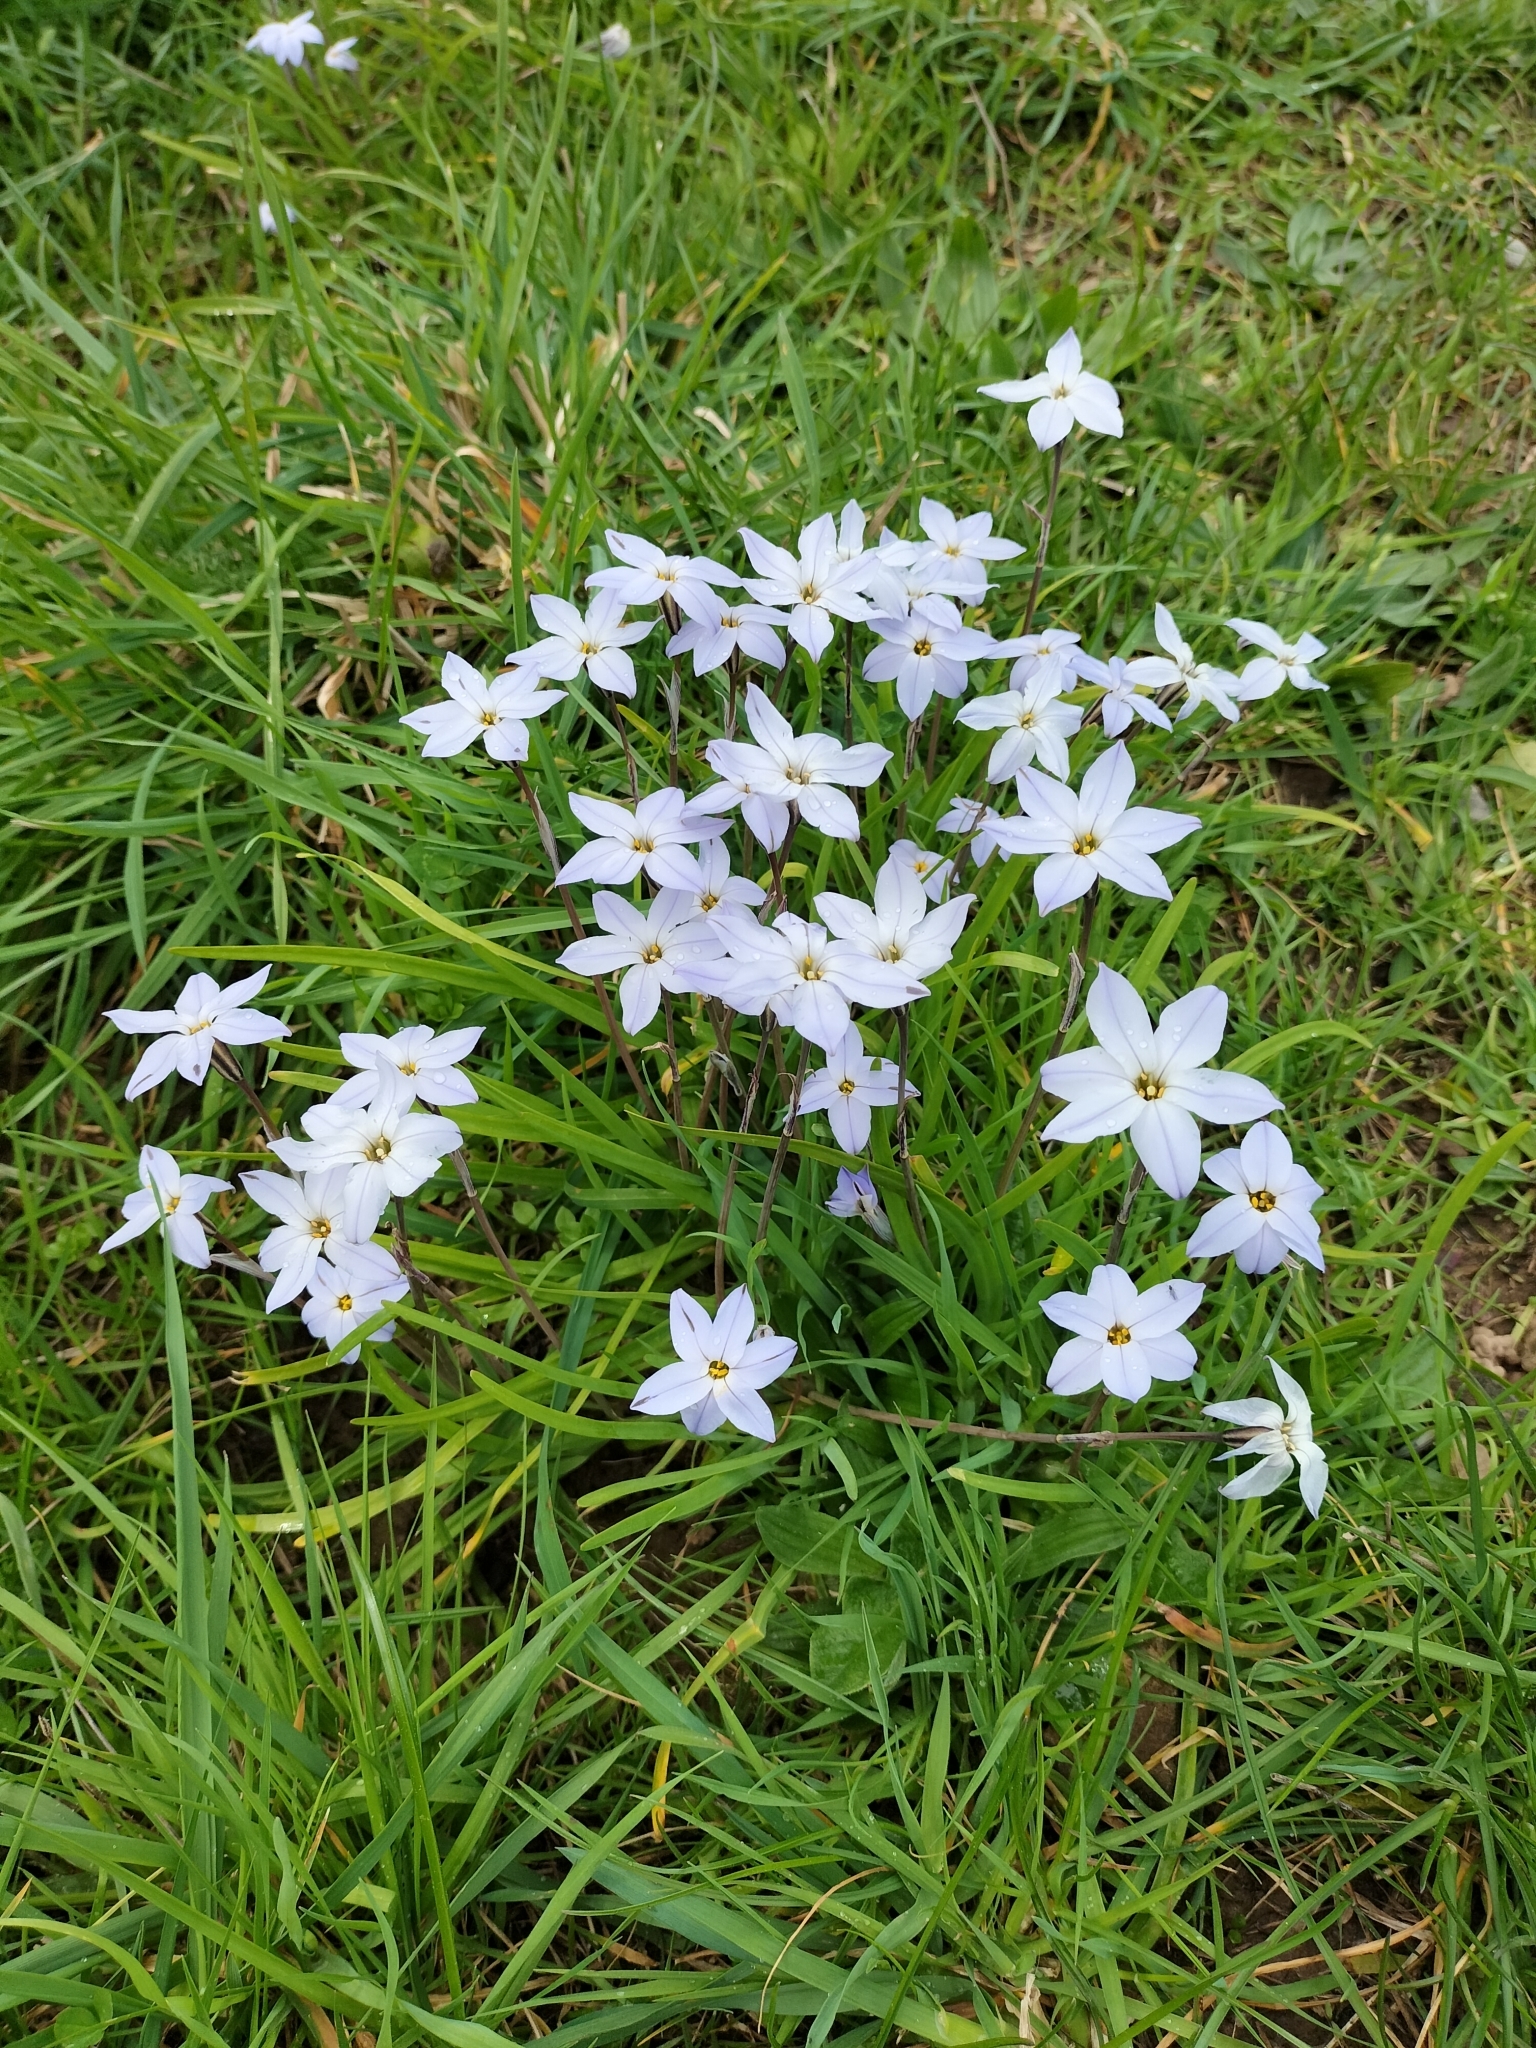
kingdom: Plantae
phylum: Tracheophyta
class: Liliopsida
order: Asparagales
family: Amaryllidaceae
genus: Ipheion
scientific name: Ipheion uniflorum
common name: Spring starflower
